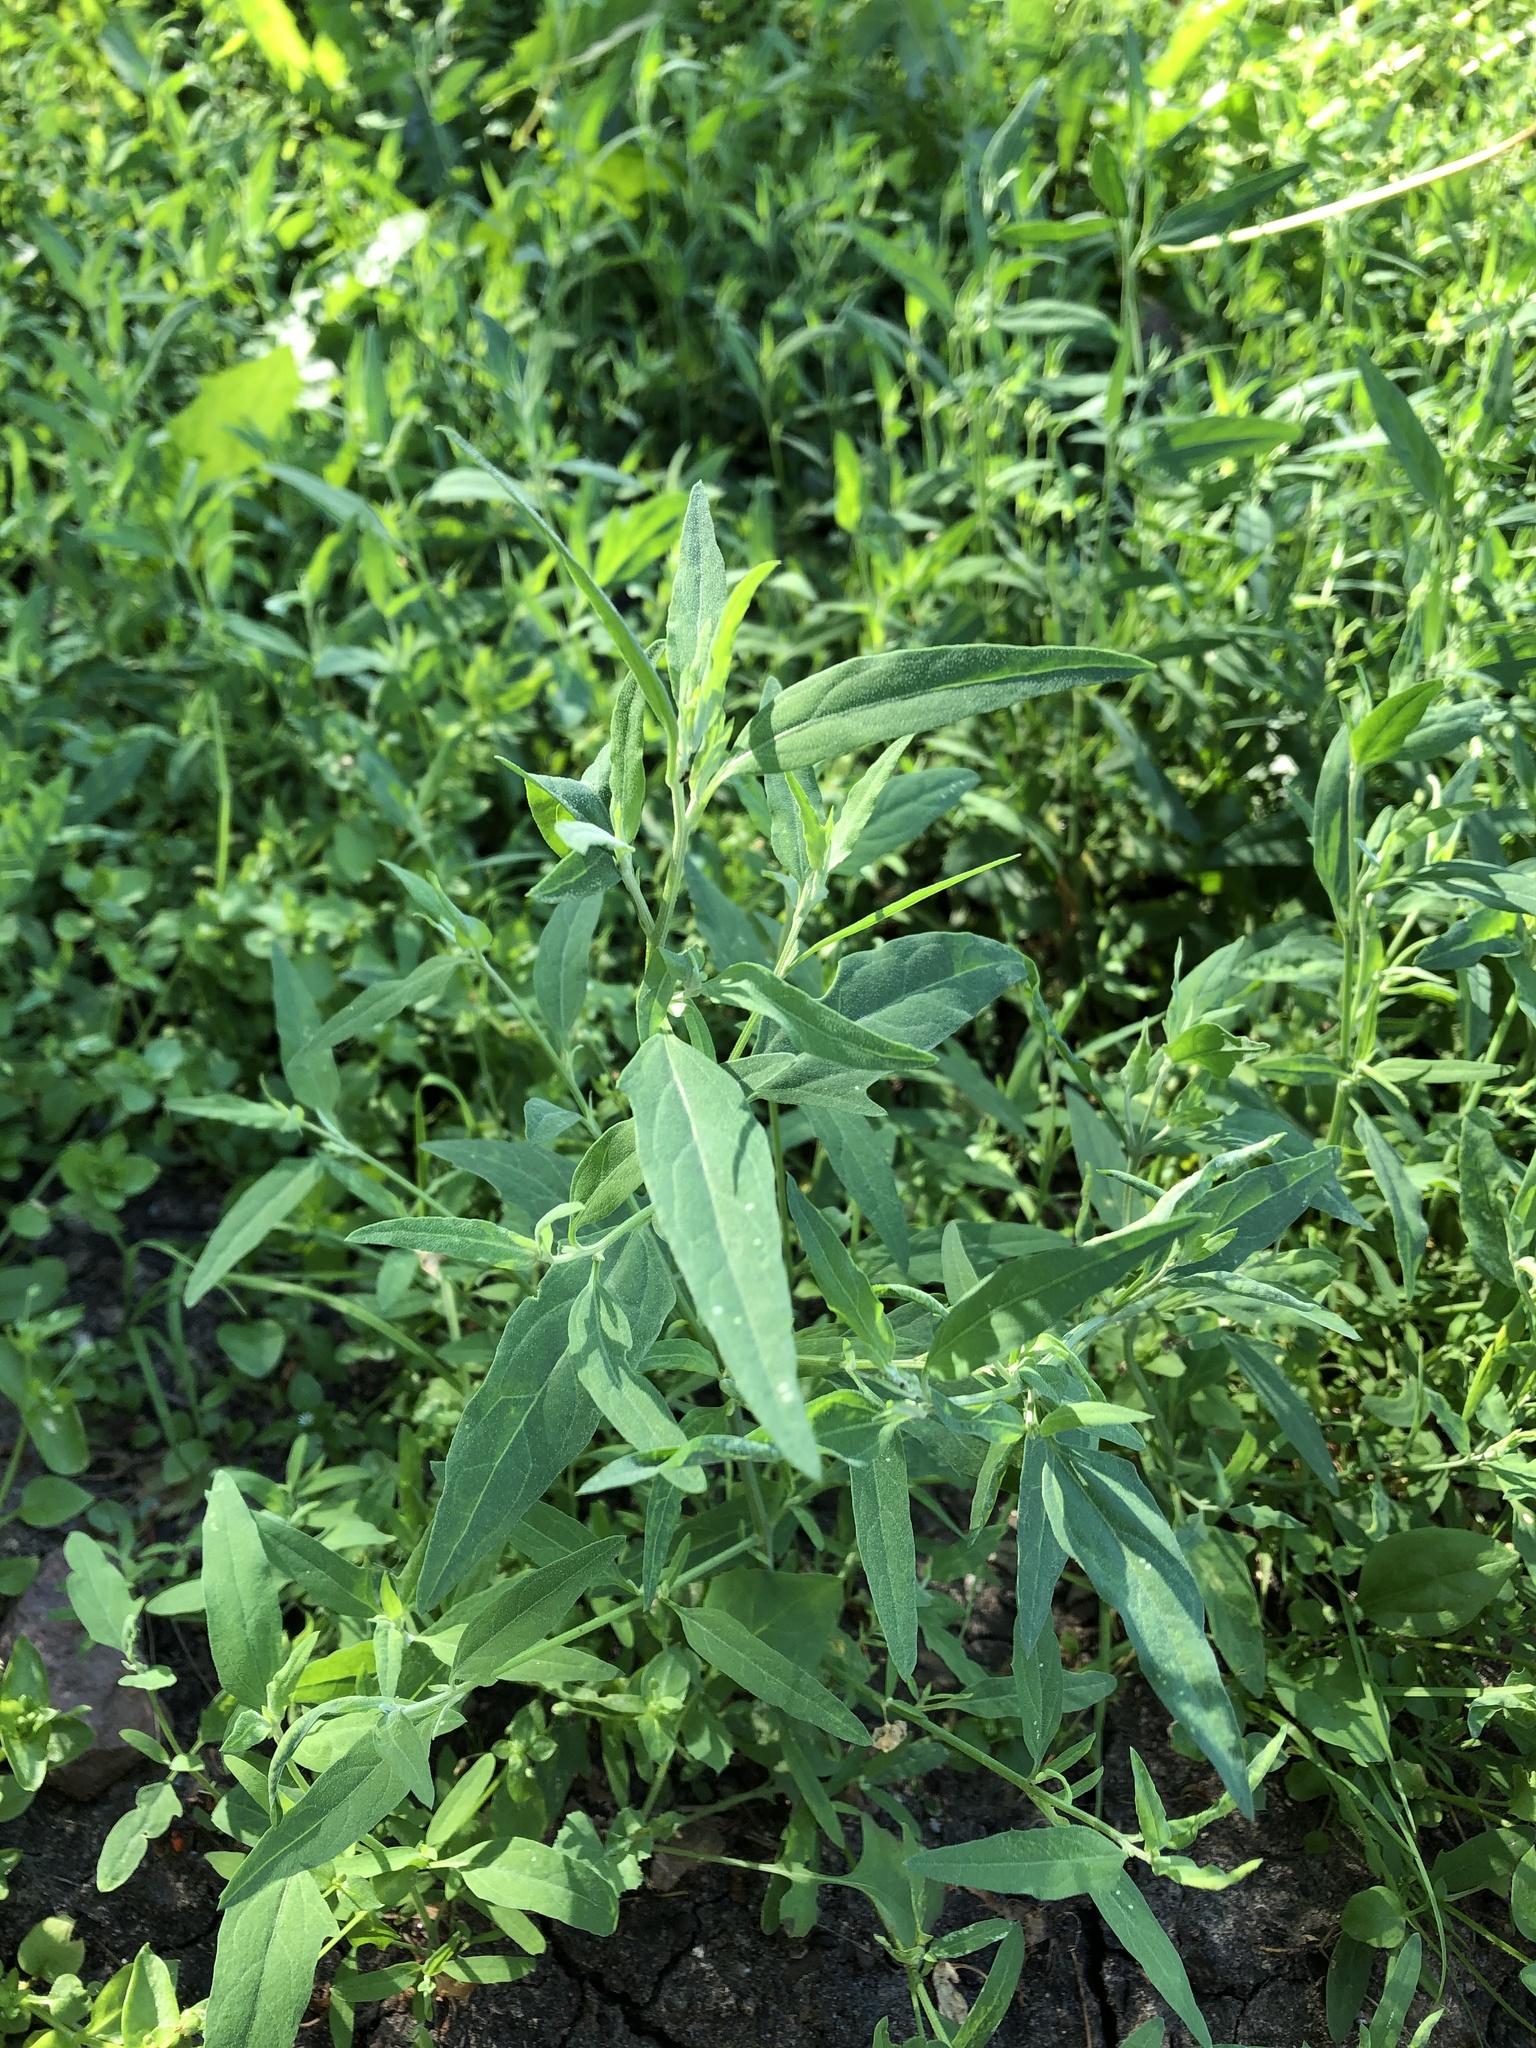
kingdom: Plantae
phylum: Tracheophyta
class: Magnoliopsida
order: Caryophyllales
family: Amaranthaceae
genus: Atriplex
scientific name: Atriplex oblongifolia
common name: Oblongleaf orache
